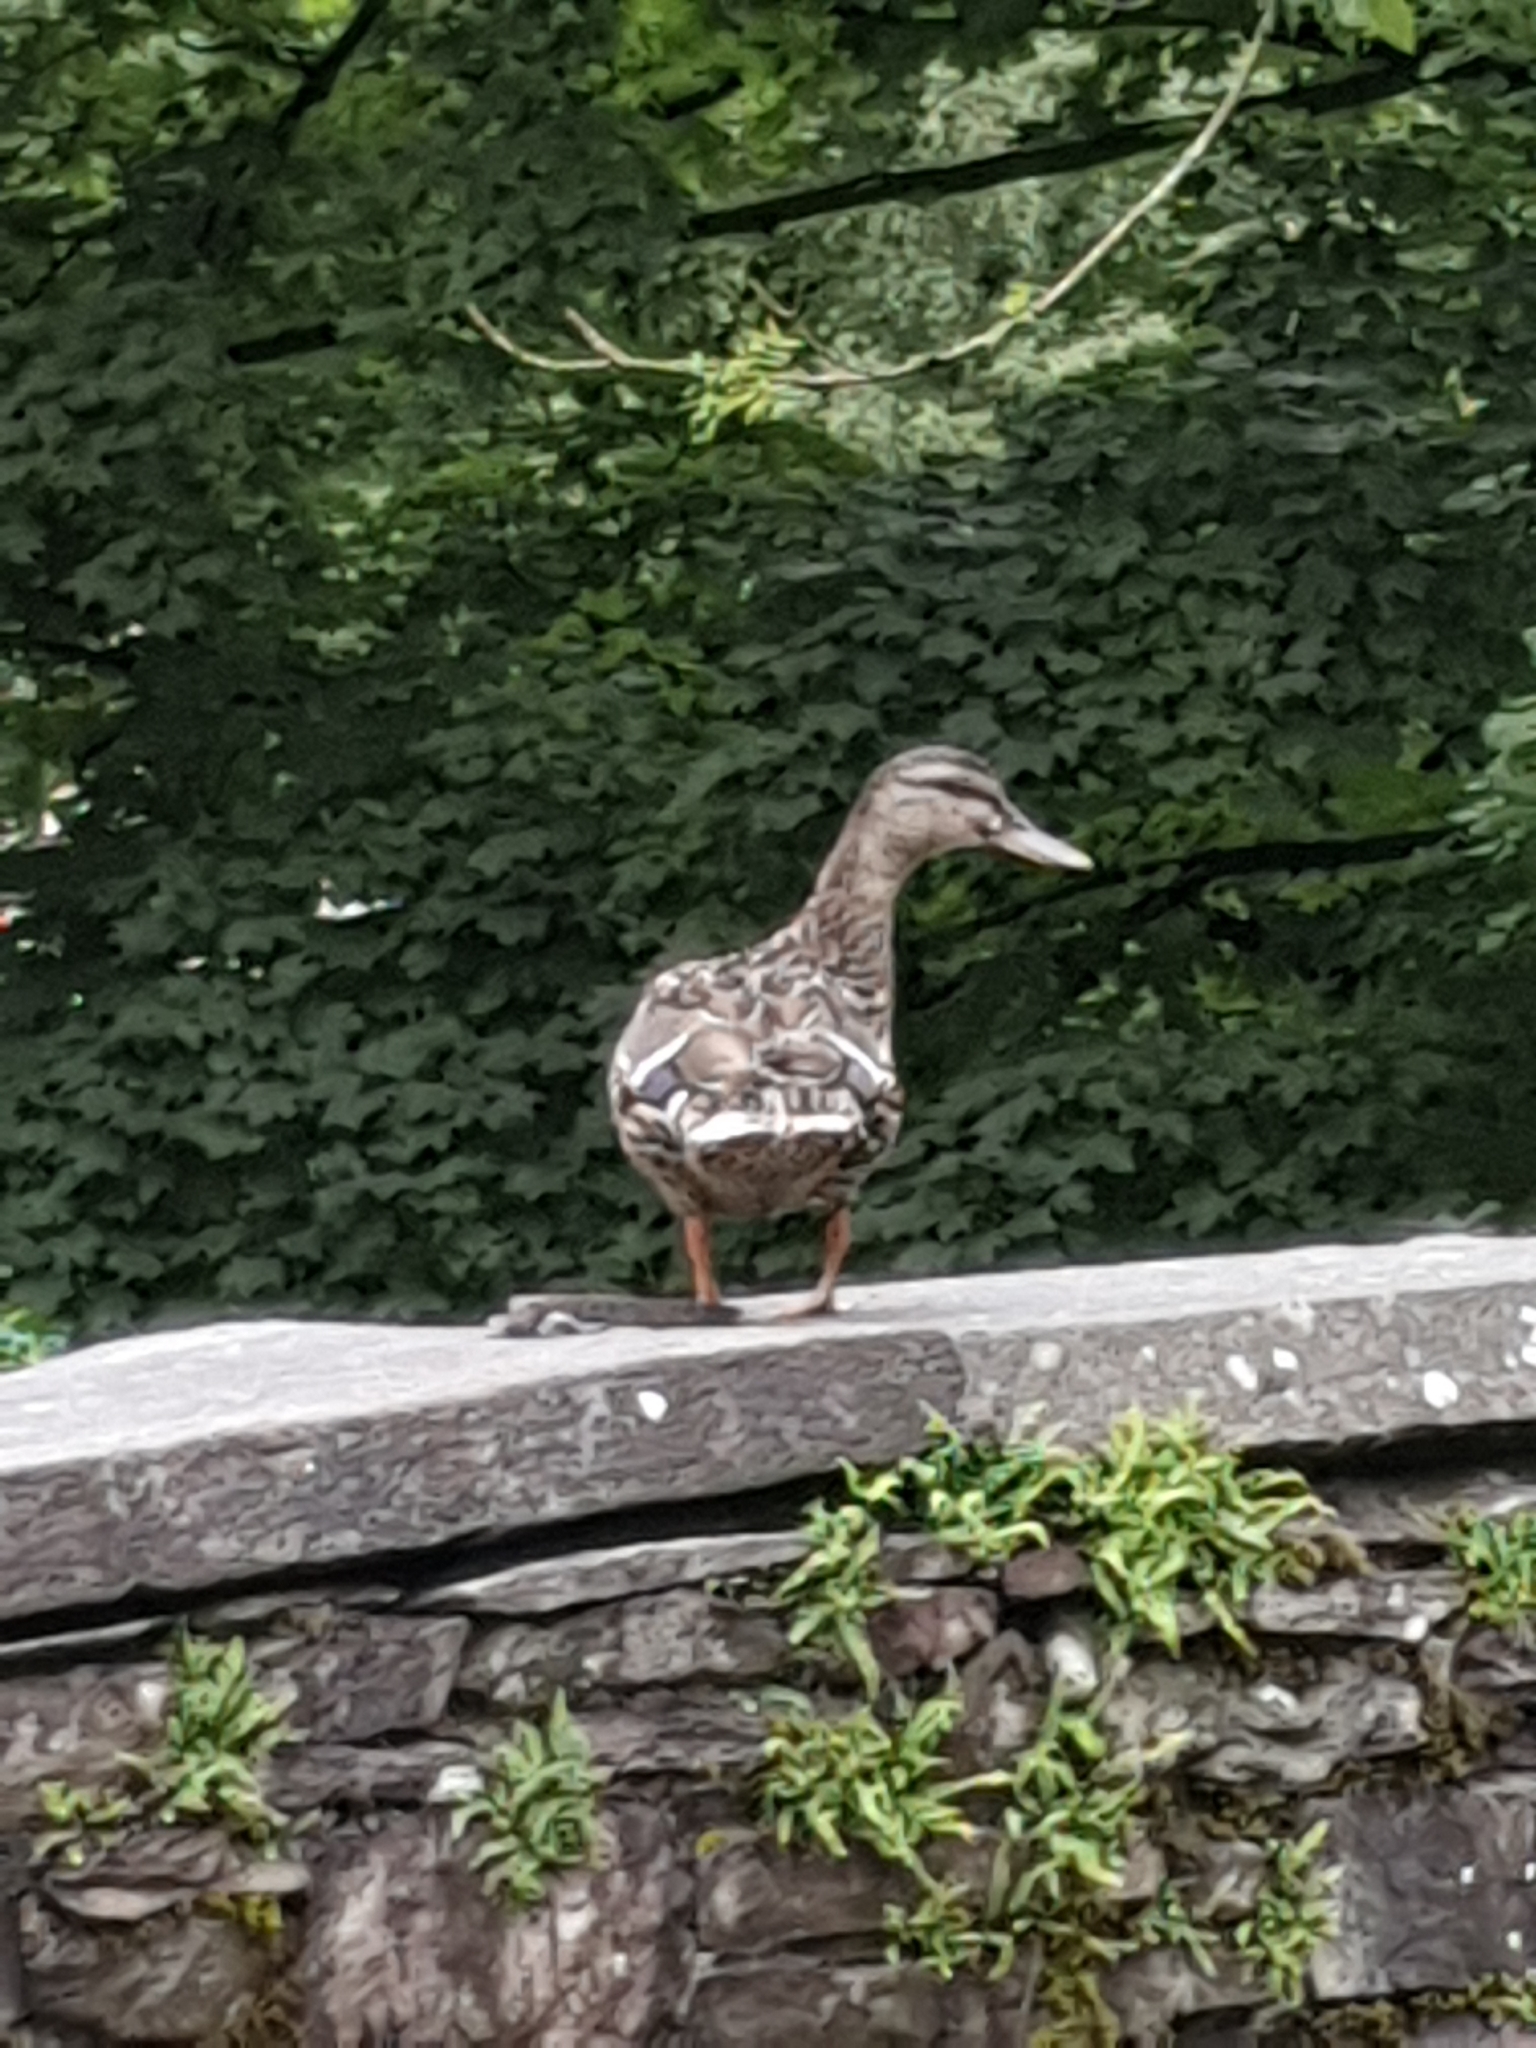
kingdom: Animalia
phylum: Chordata
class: Aves
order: Anseriformes
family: Anatidae
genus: Anas
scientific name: Anas platyrhynchos
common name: Mallard
